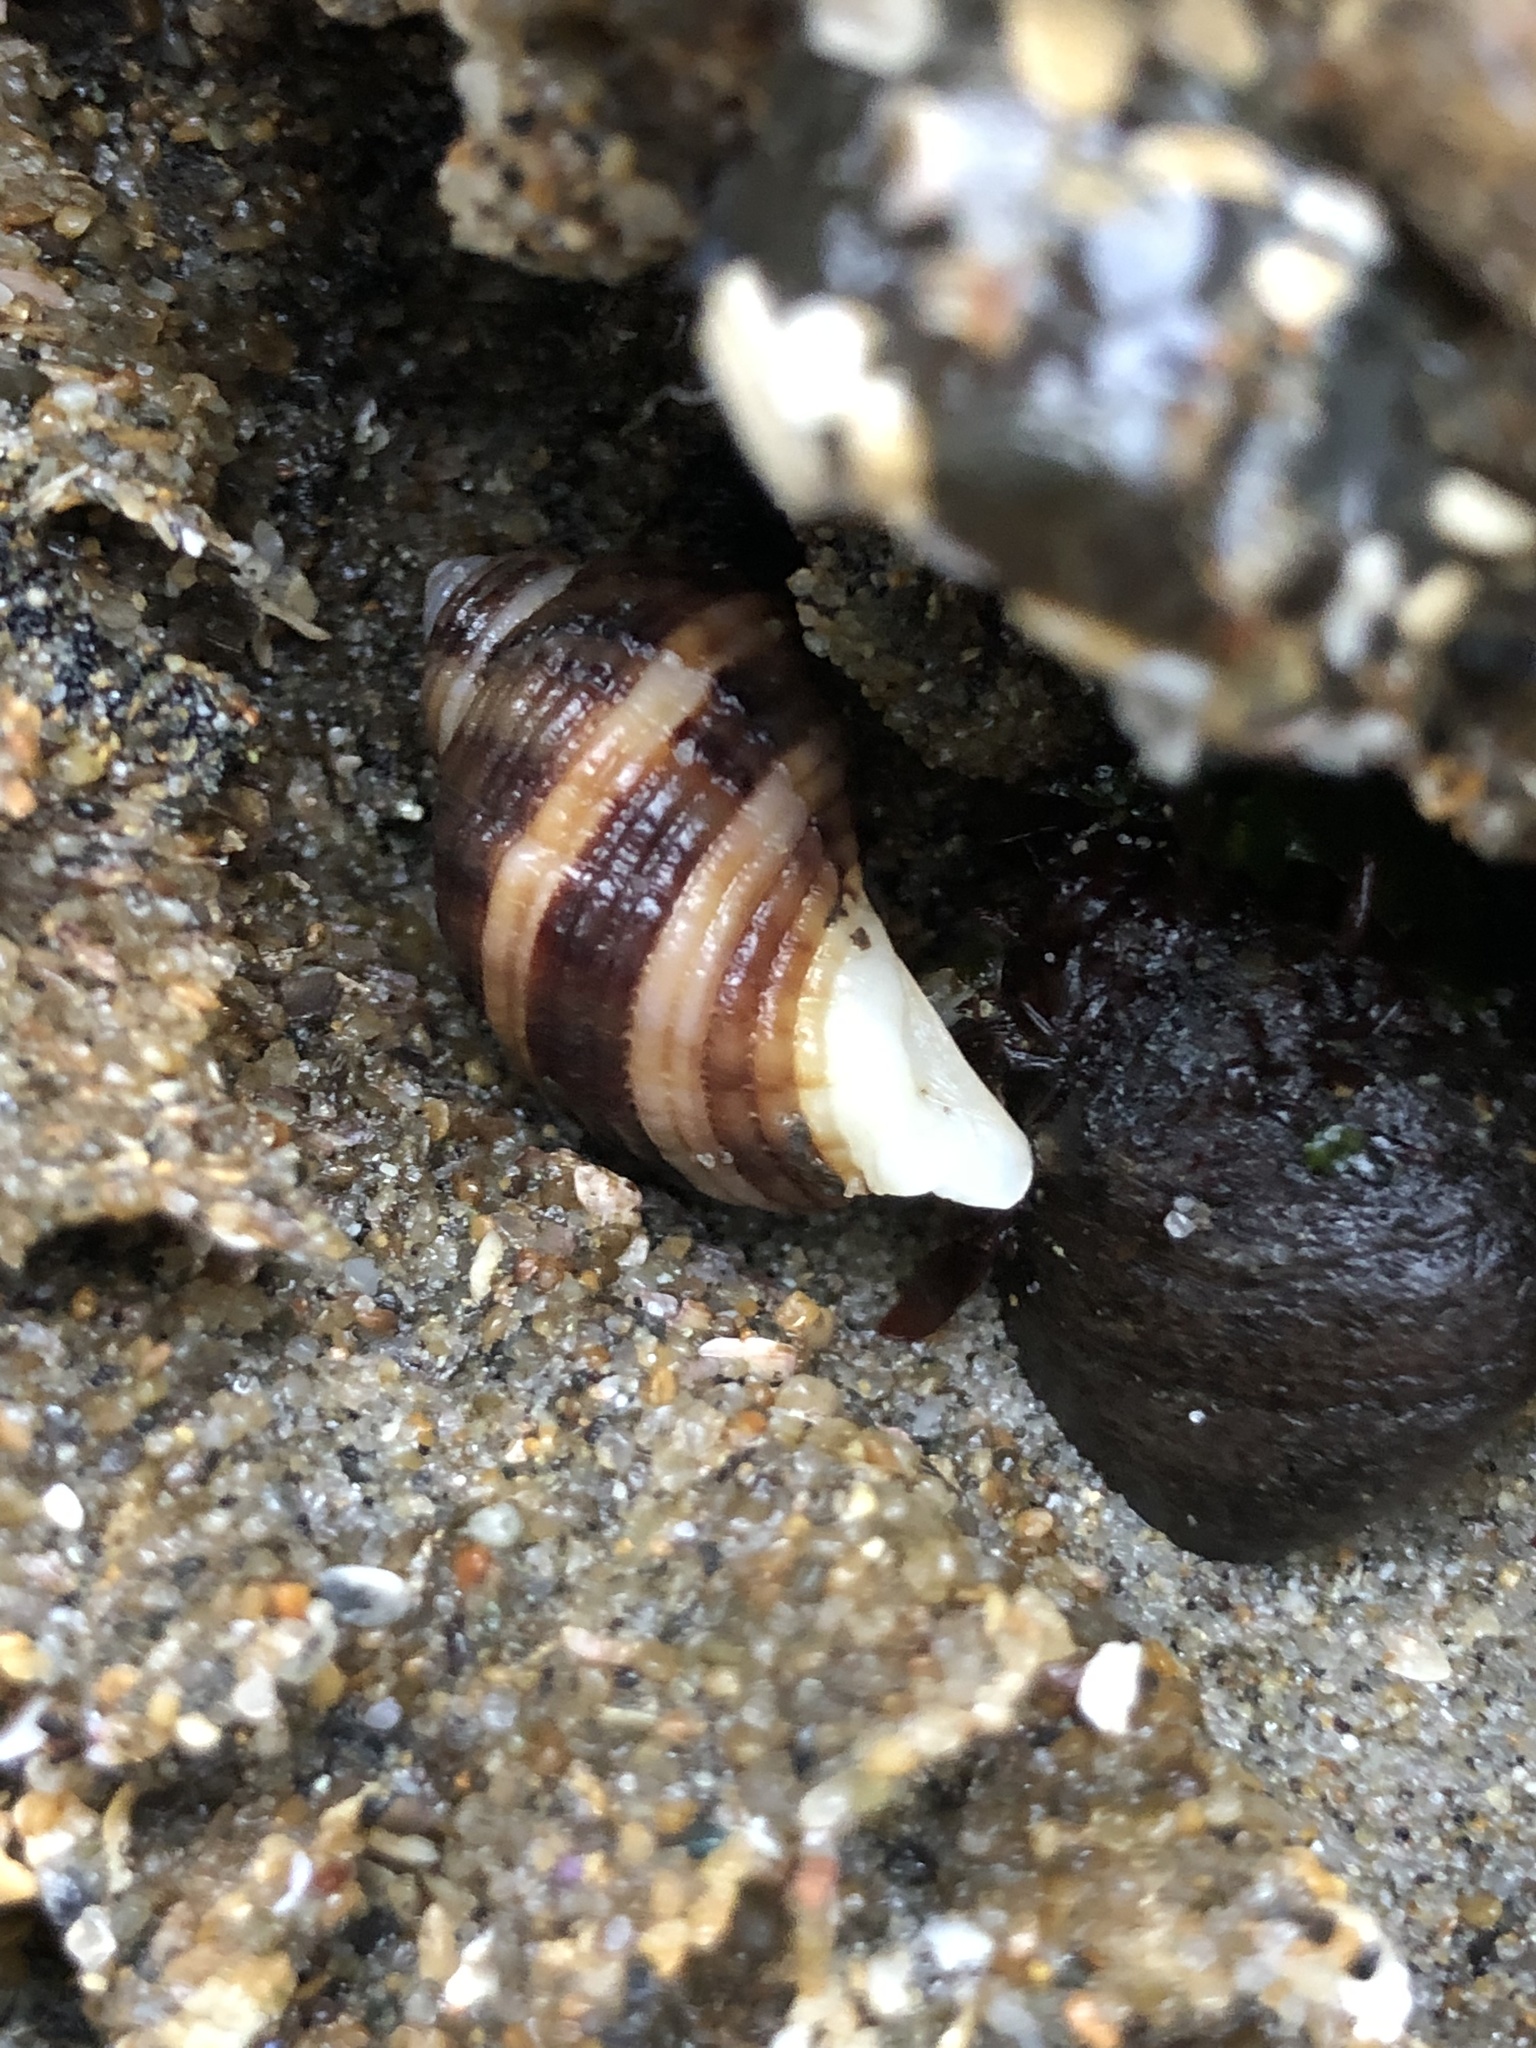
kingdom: Animalia
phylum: Mollusca
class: Gastropoda
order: Neogastropoda
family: Muricidae
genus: Nucella
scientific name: Nucella analoga
